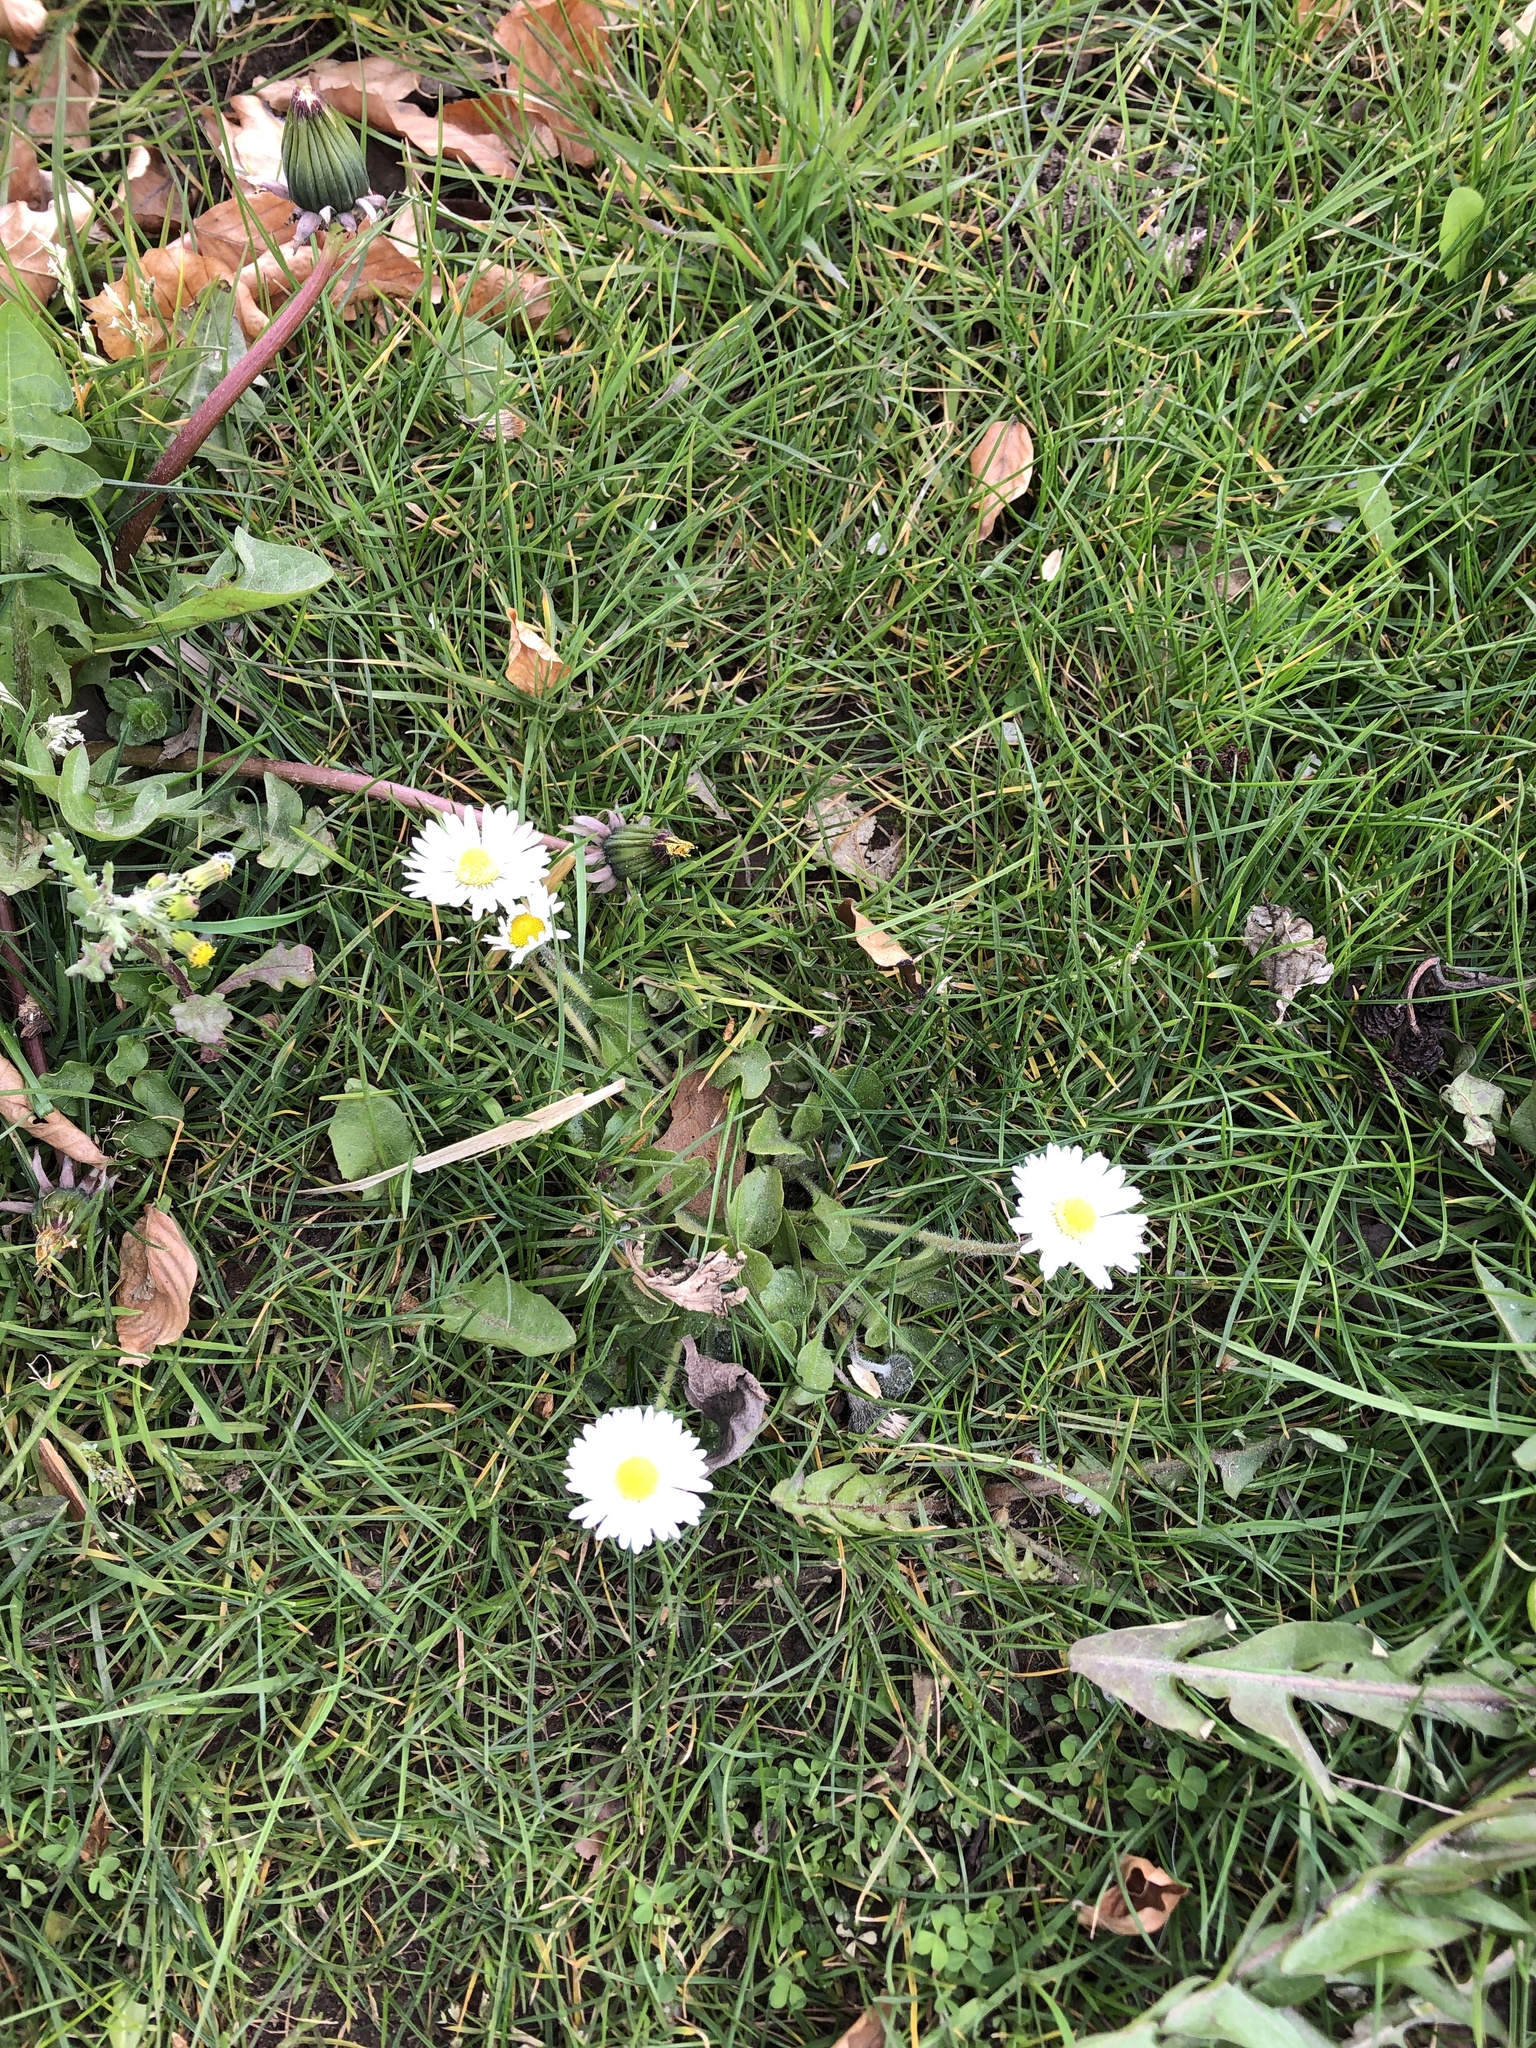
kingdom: Plantae
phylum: Tracheophyta
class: Magnoliopsida
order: Asterales
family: Asteraceae
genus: Bellis
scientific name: Bellis perennis
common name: Lawndaisy
